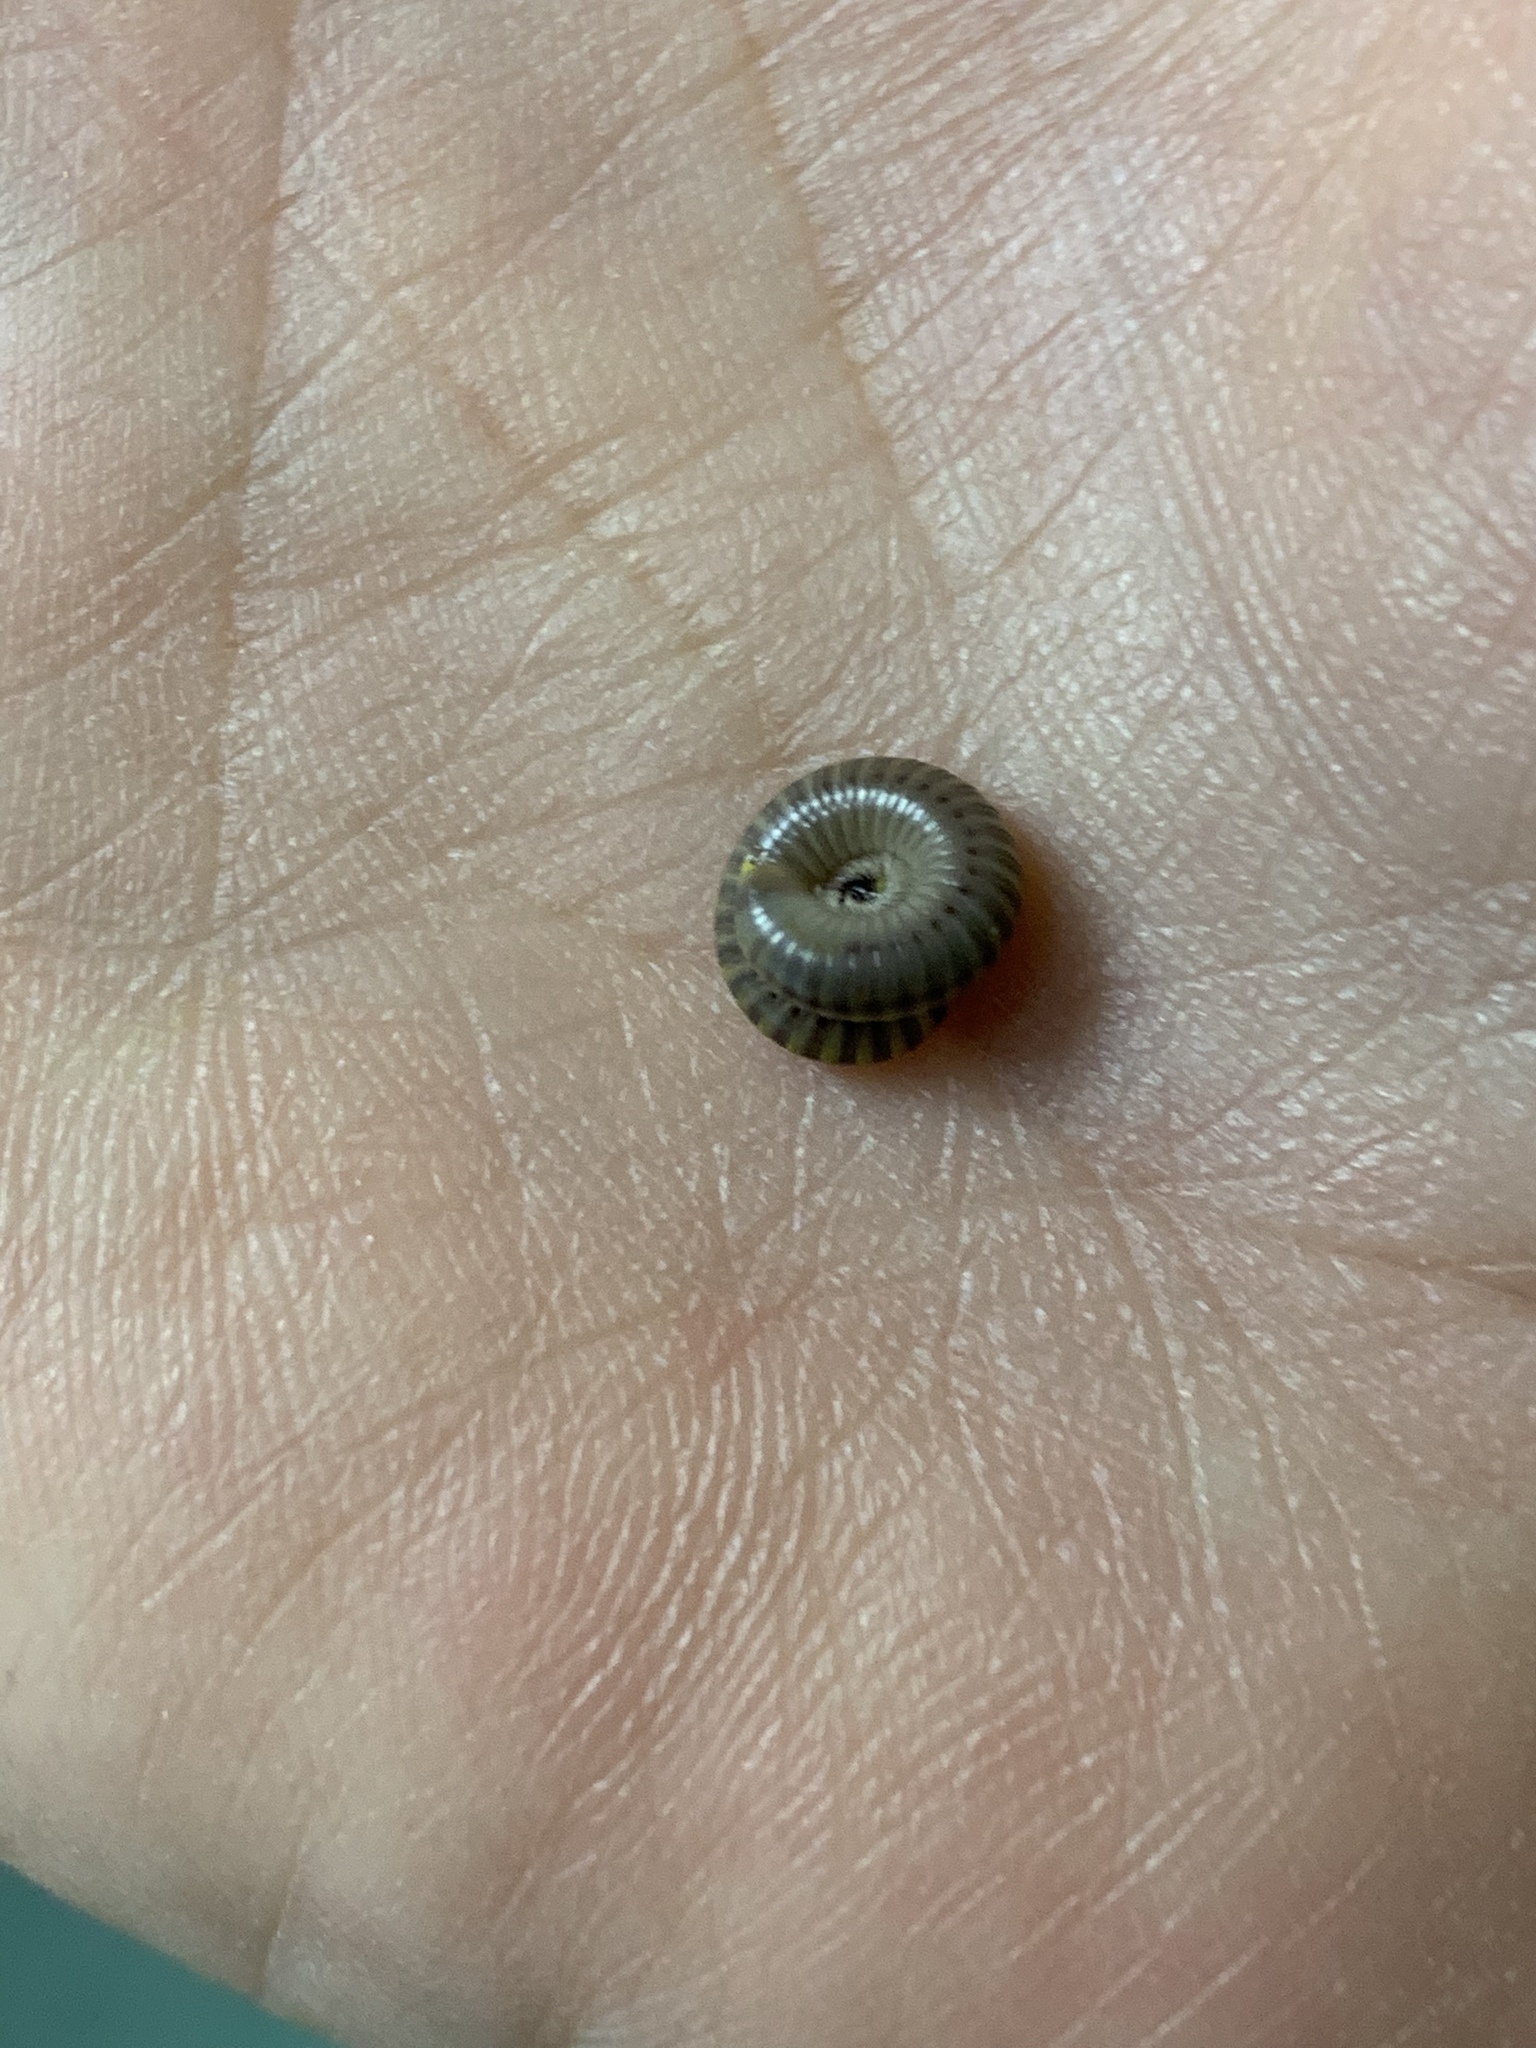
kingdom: Animalia
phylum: Arthropoda
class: Diplopoda
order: Spirobolida
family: Rhinocricidae
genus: Anadenobolus
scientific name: Anadenobolus monilicornis
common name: Caribbean millipede
